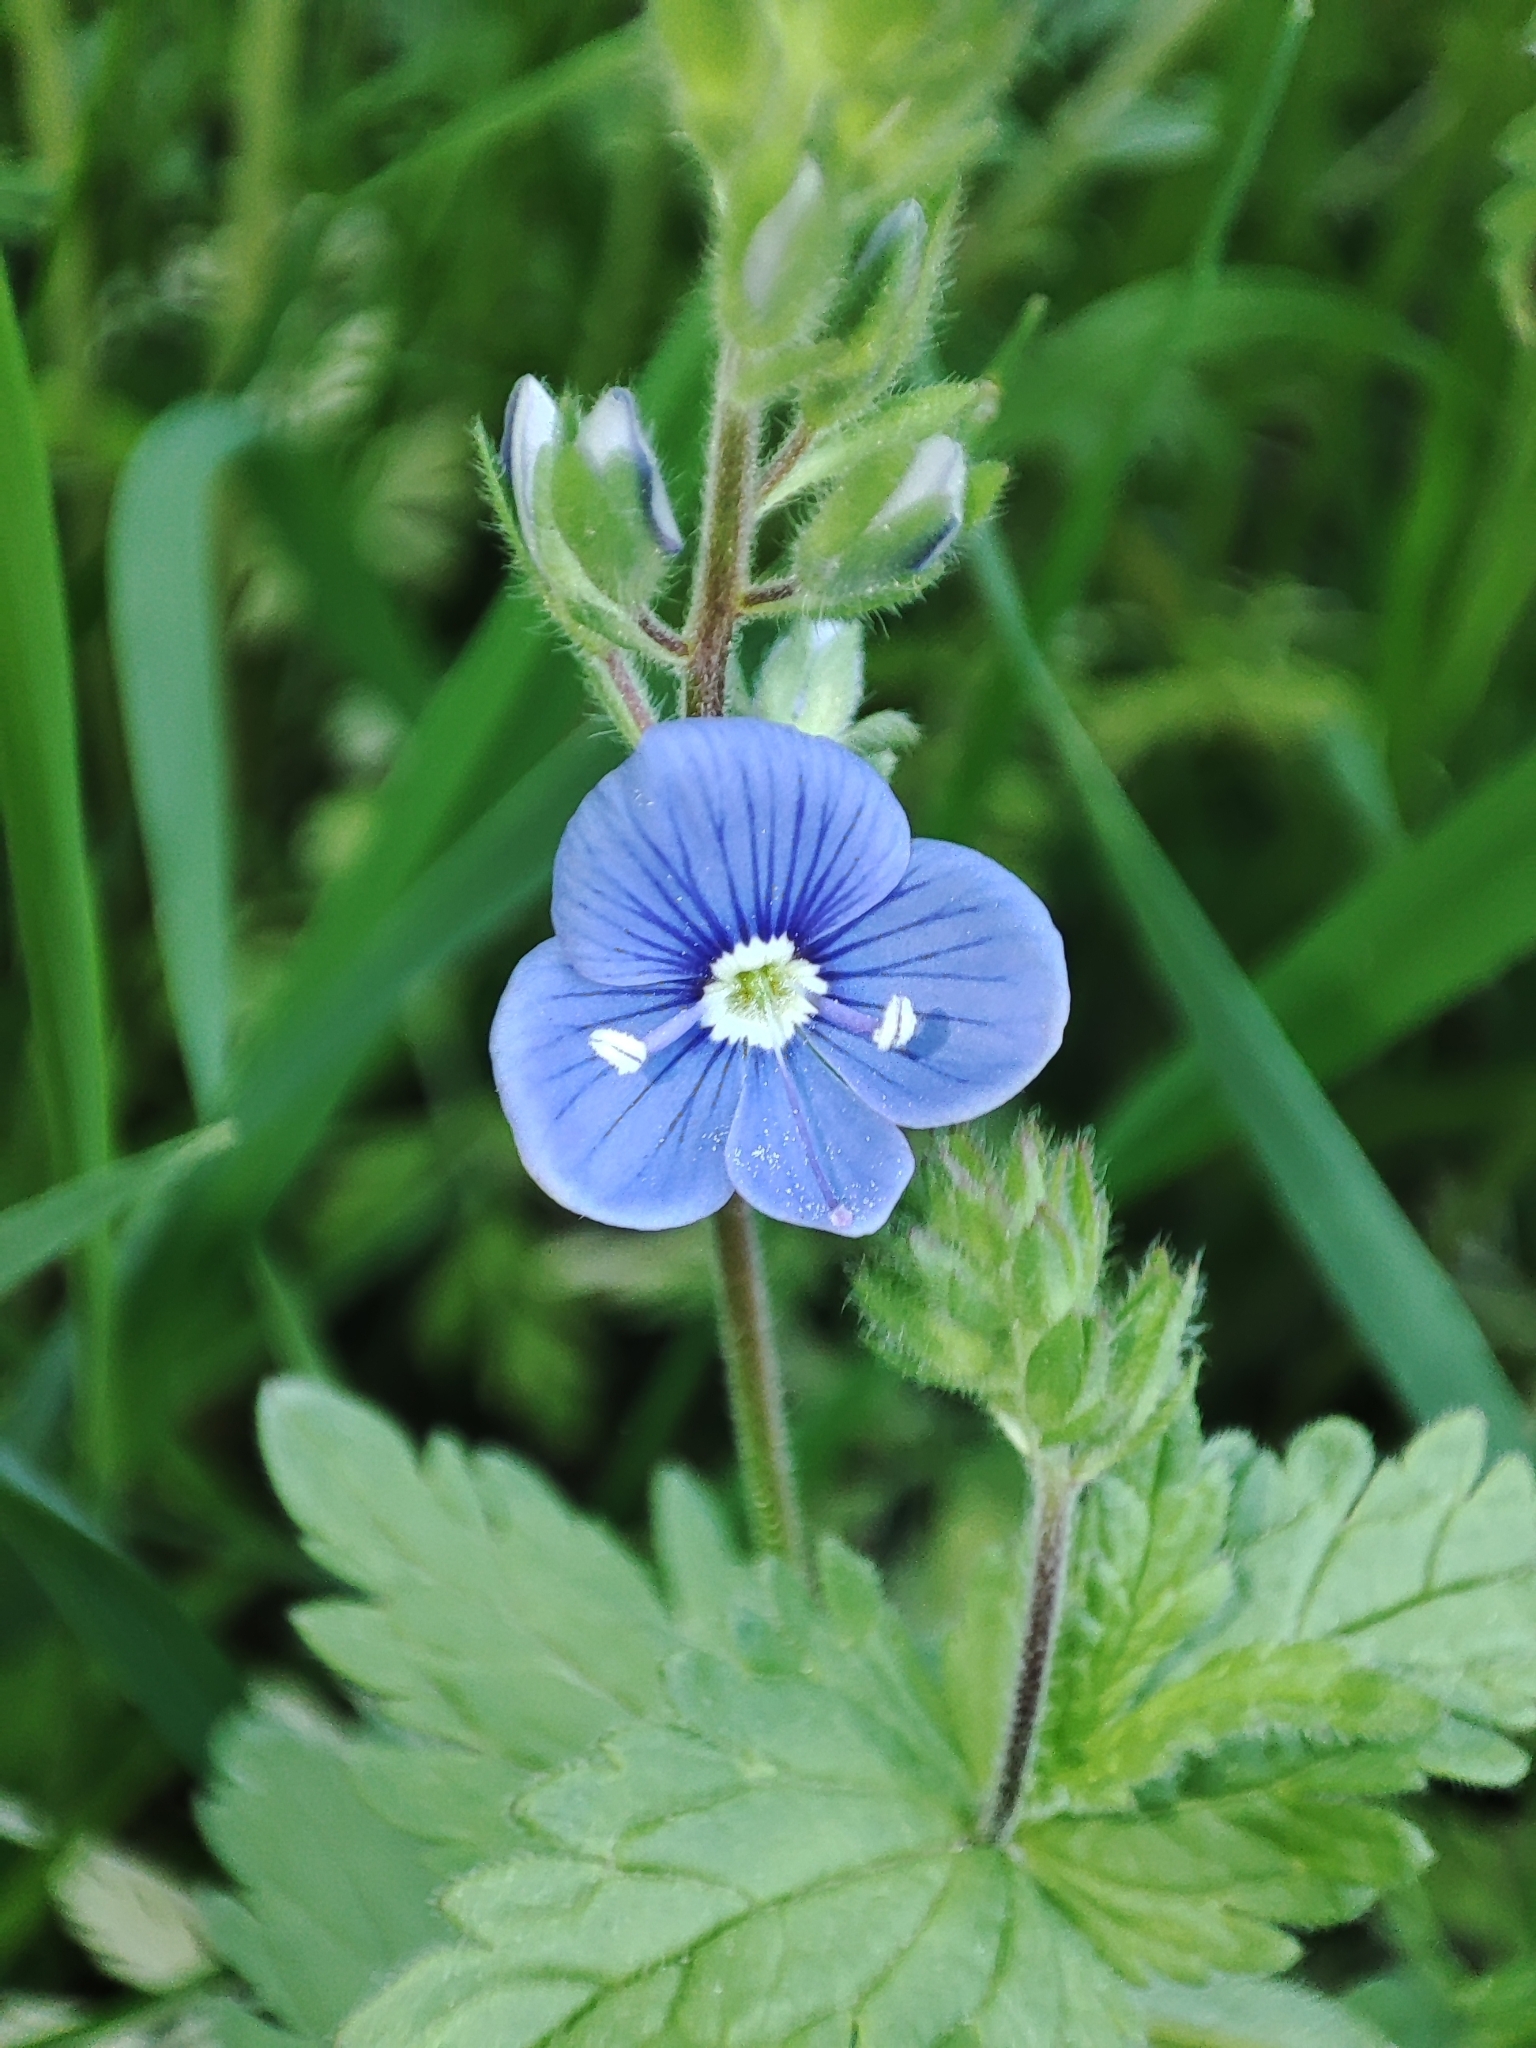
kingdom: Plantae
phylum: Tracheophyta
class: Magnoliopsida
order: Lamiales
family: Plantaginaceae
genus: Veronica
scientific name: Veronica chamaedrys
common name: Germander speedwell
